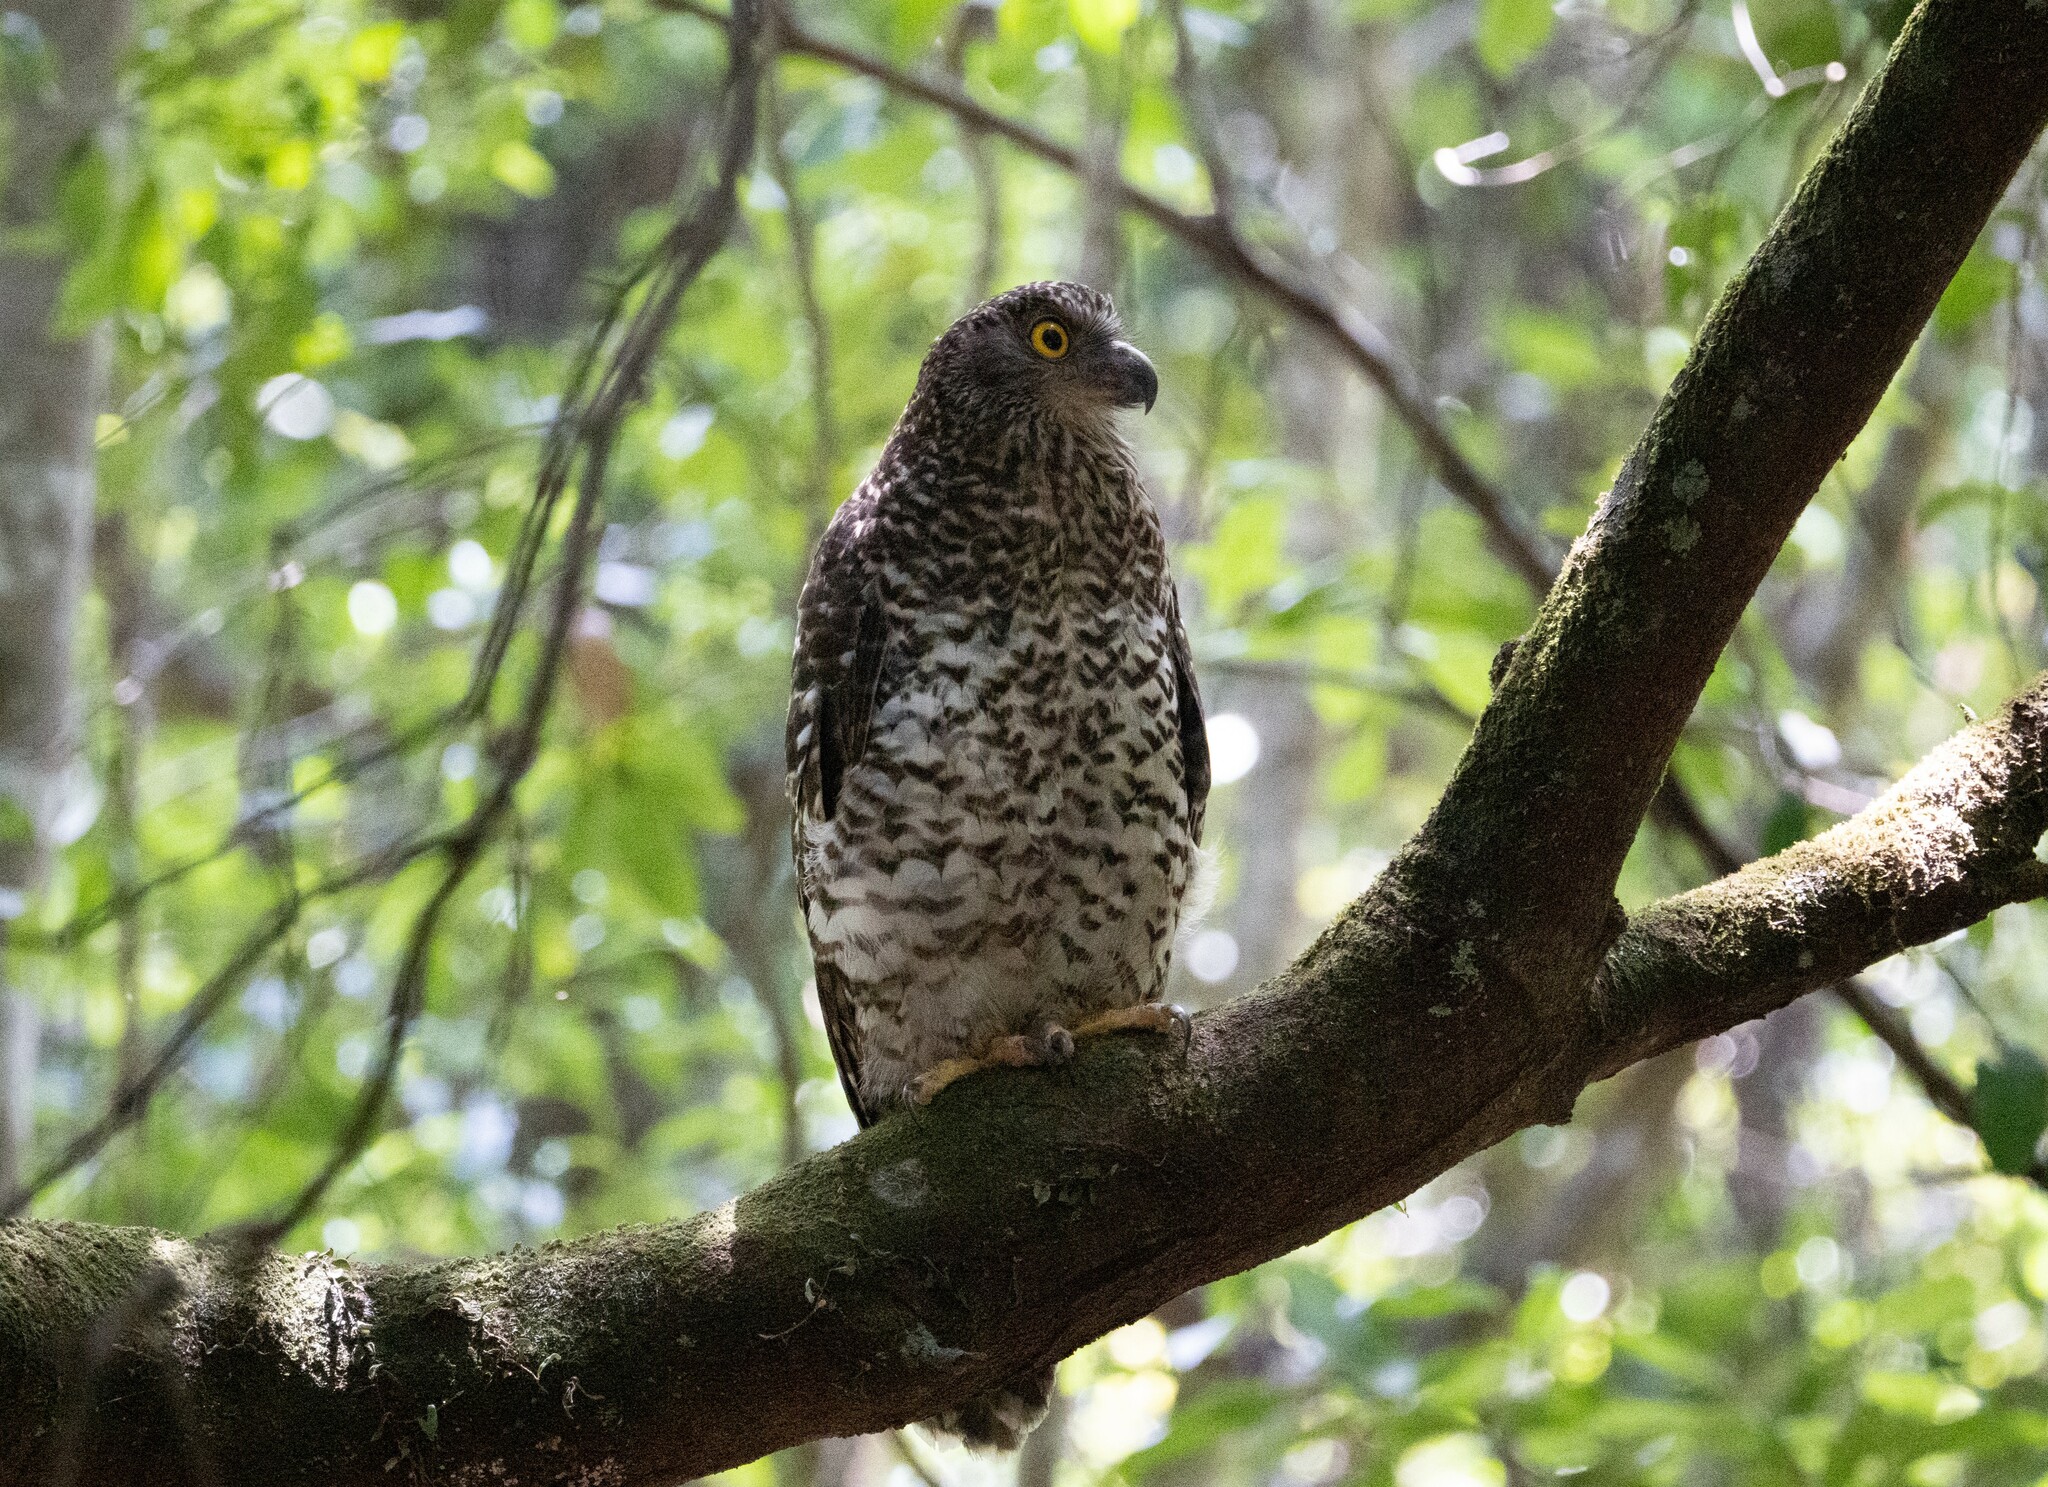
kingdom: Animalia
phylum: Chordata
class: Aves
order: Strigiformes
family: Strigidae
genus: Ninox
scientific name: Ninox strenua
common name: Powerful owl
